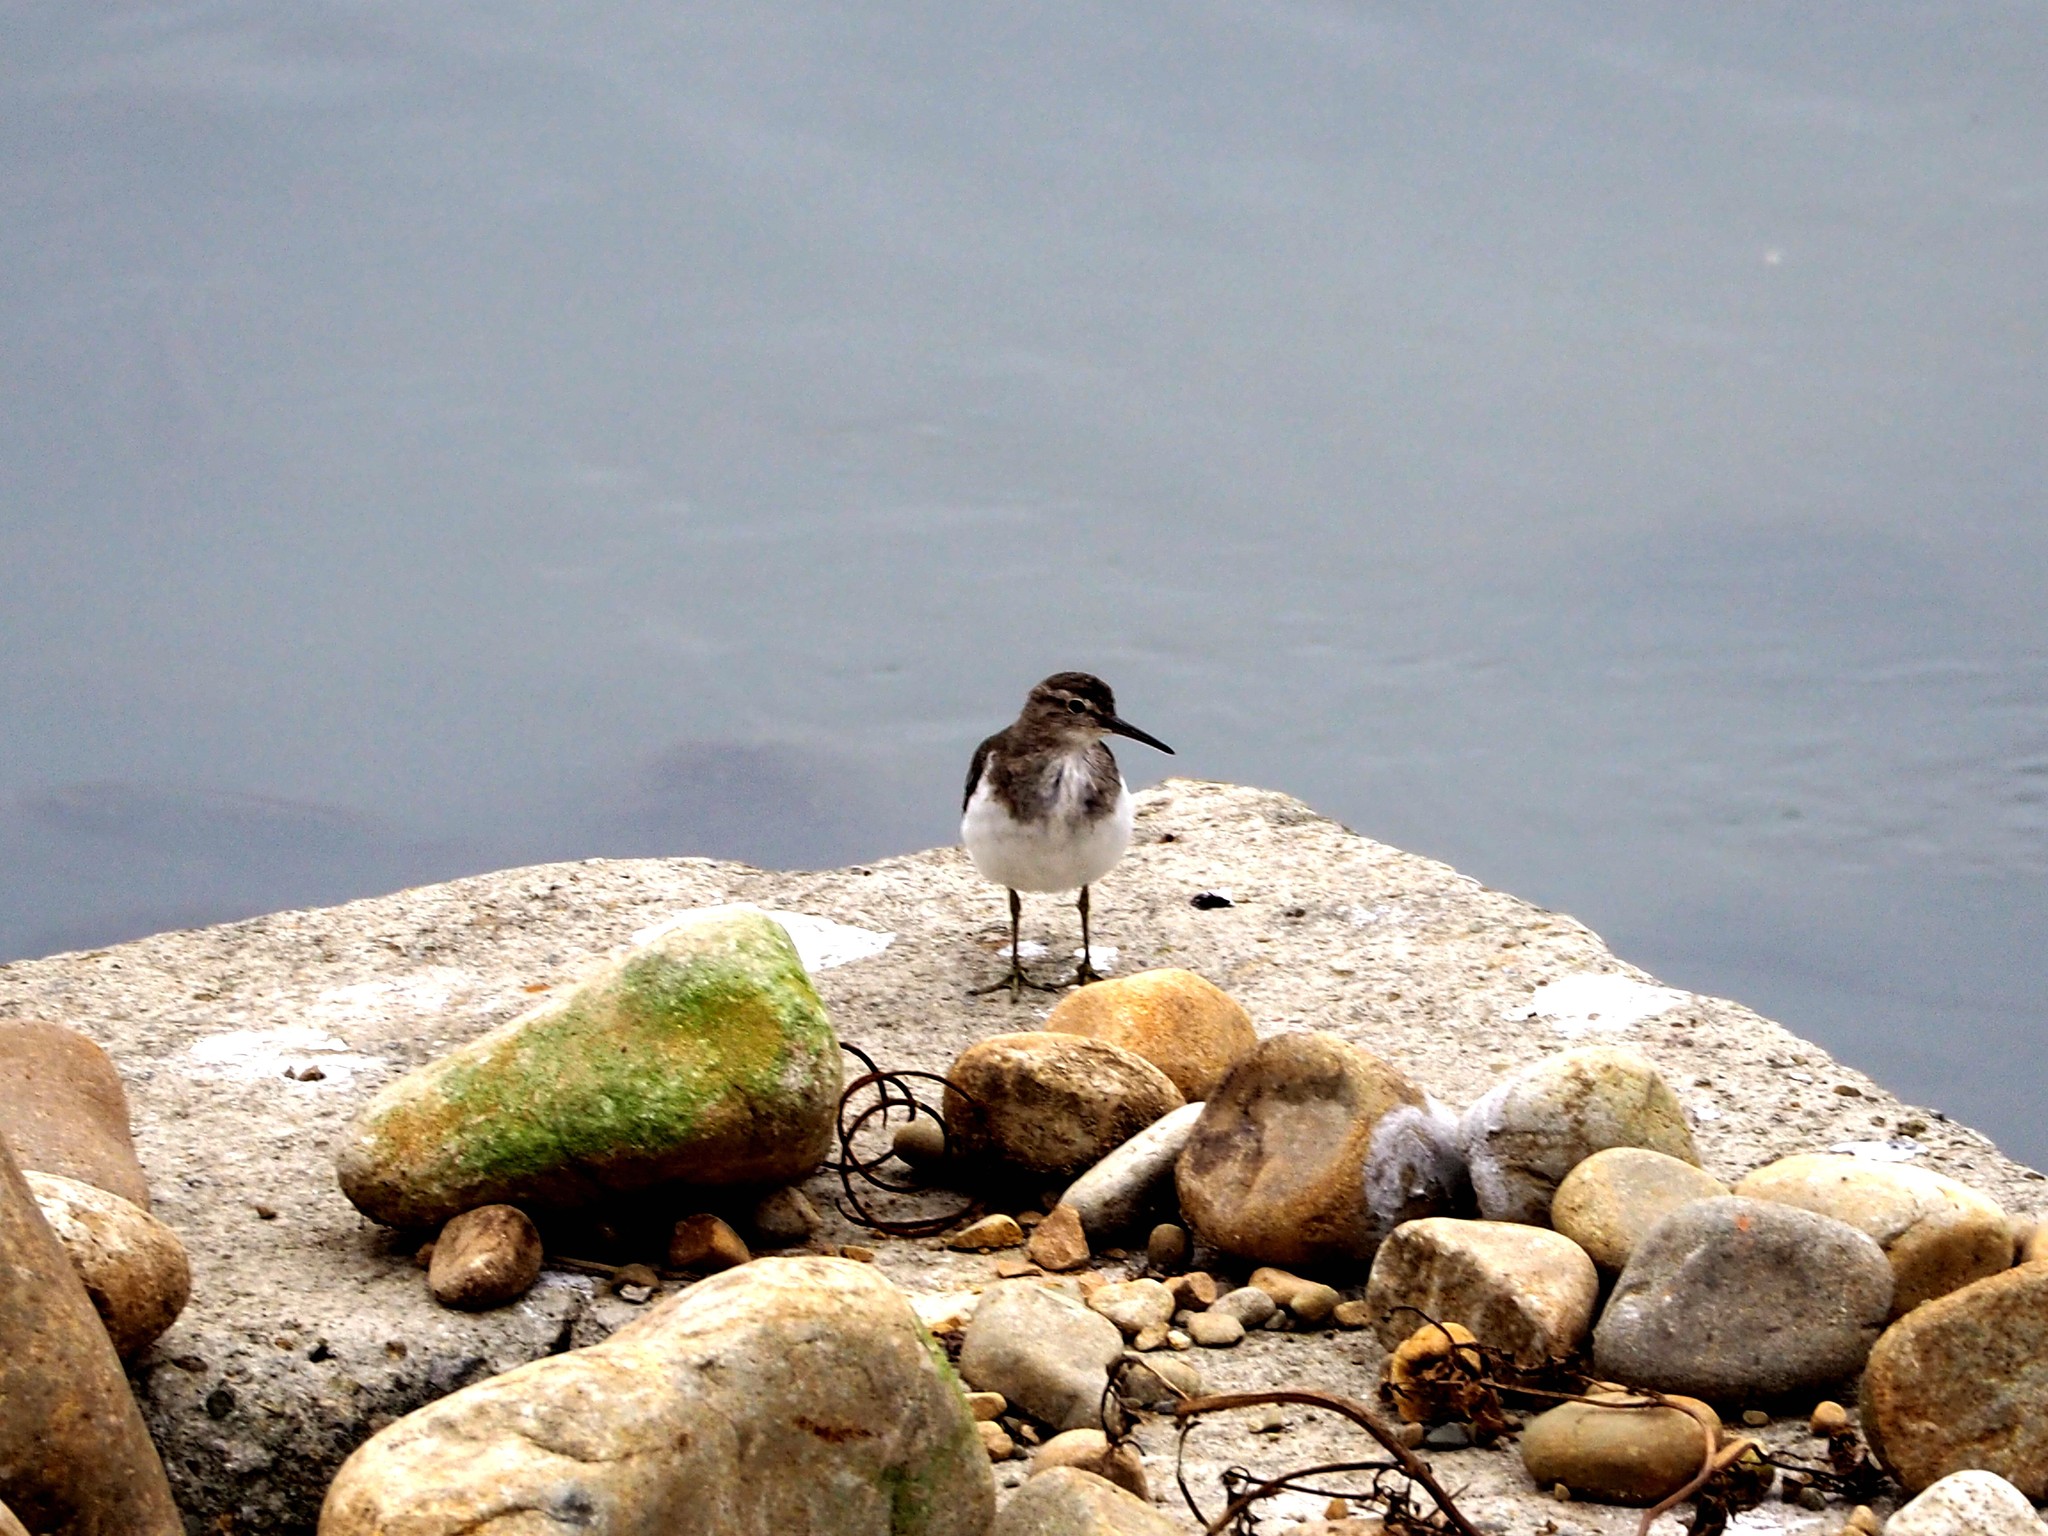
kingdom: Animalia
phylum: Chordata
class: Aves
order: Charadriiformes
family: Scolopacidae
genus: Actitis
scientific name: Actitis hypoleucos
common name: Common sandpiper
